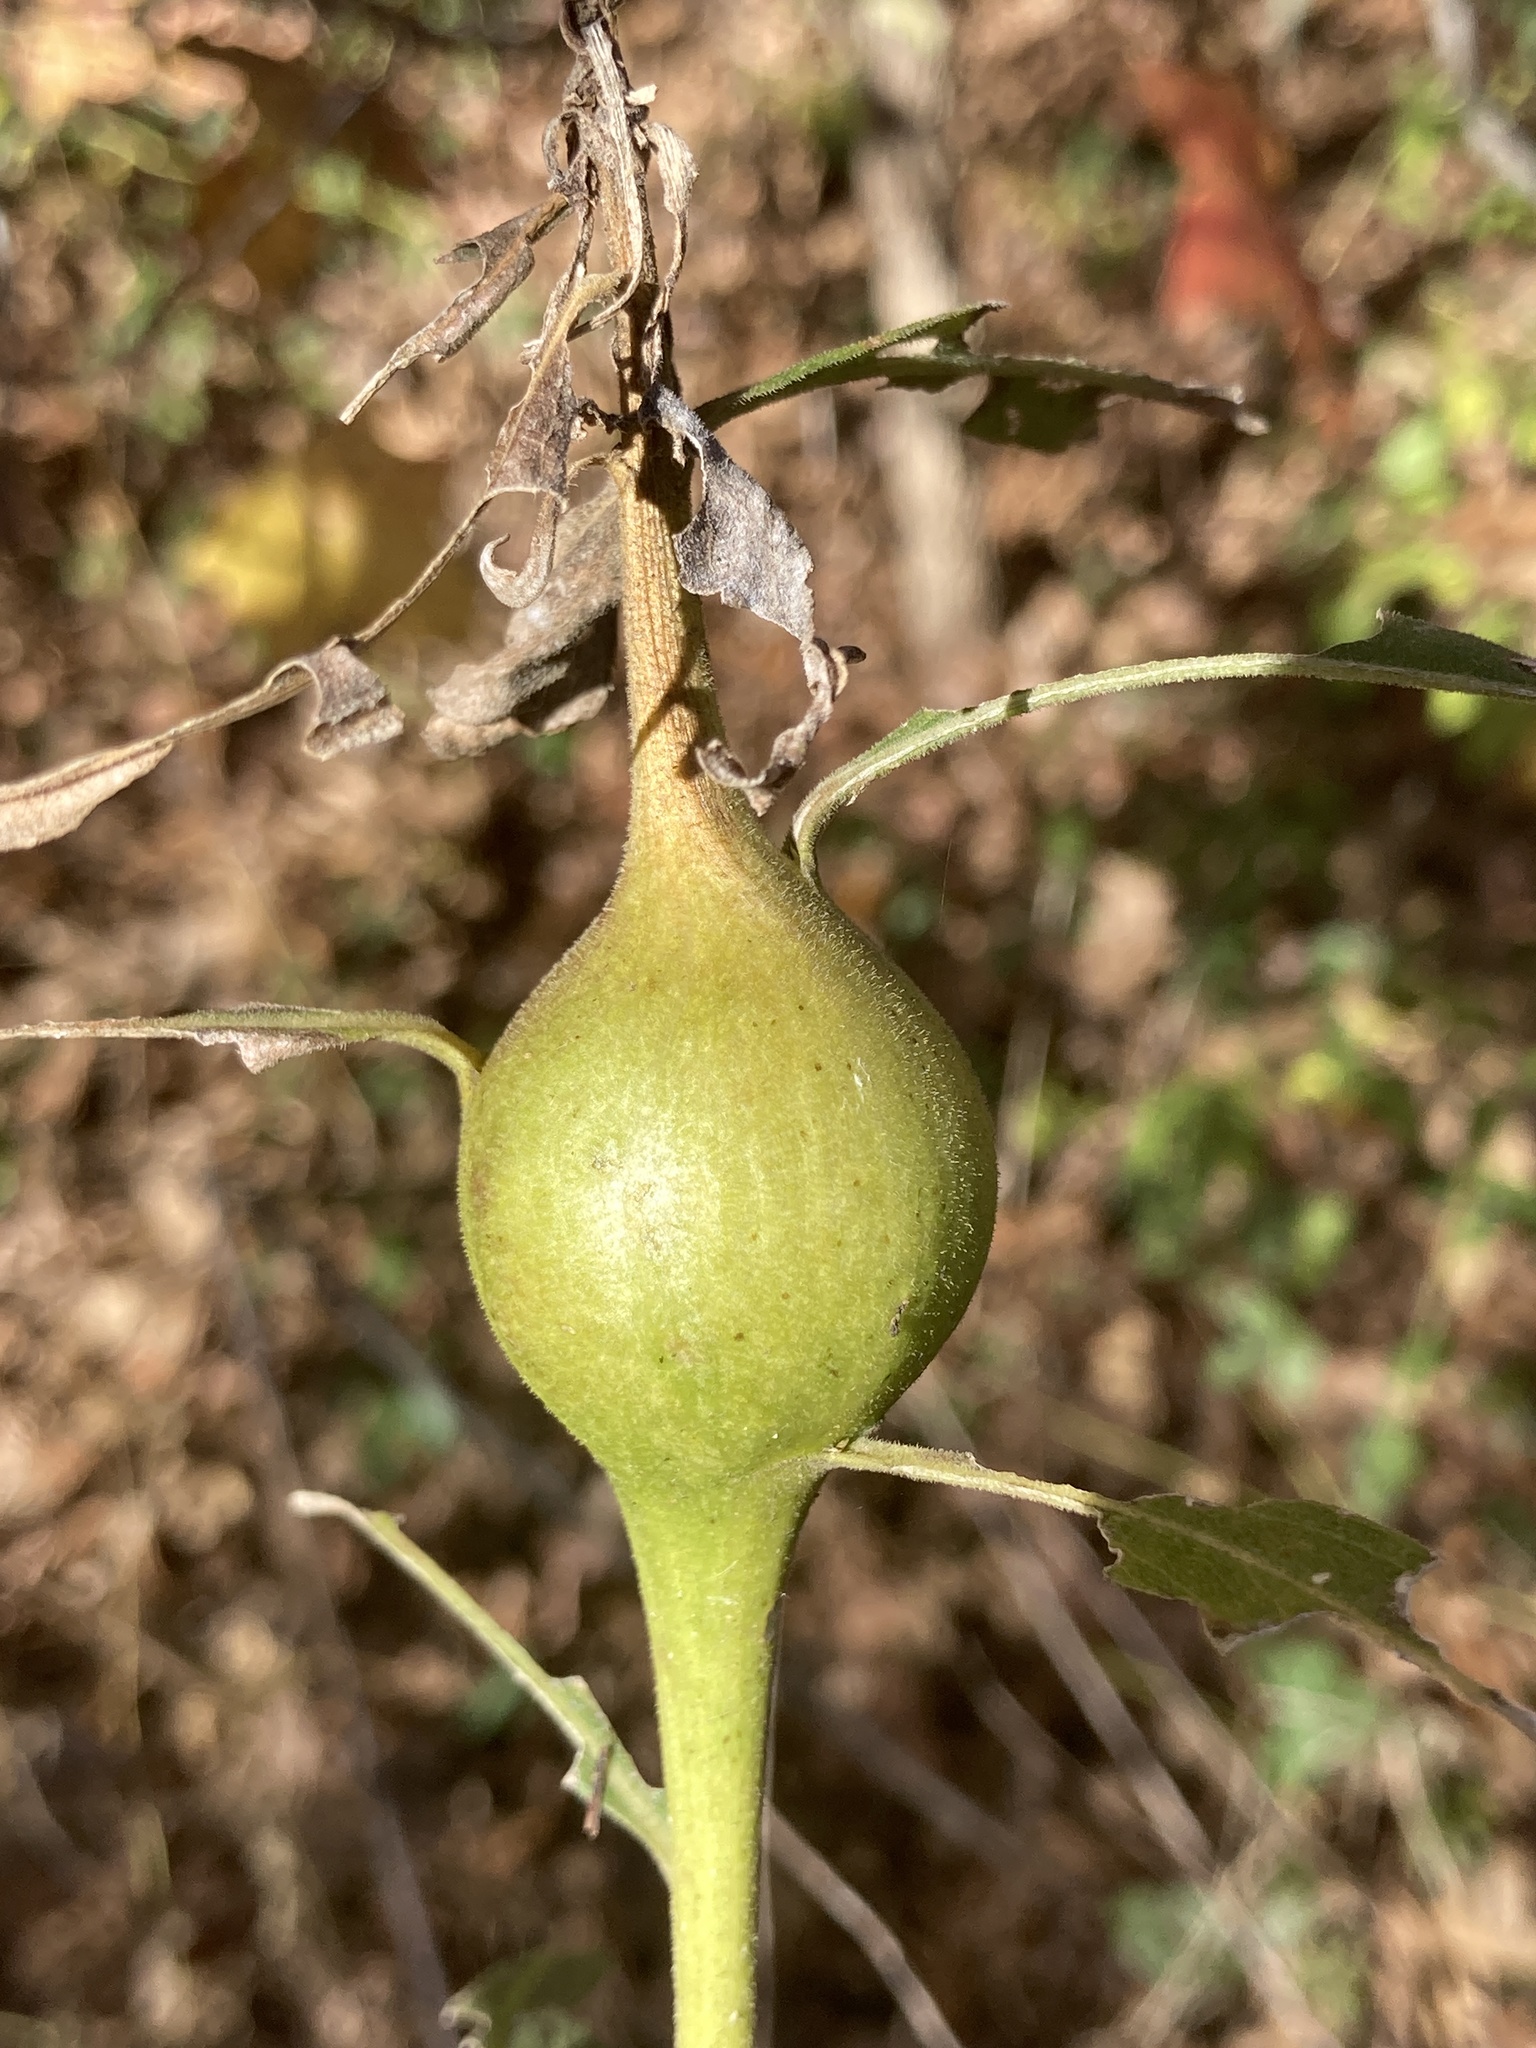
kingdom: Animalia
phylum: Arthropoda
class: Insecta
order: Diptera
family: Tephritidae
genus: Eurosta
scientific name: Eurosta solidaginis
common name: Goldenrod gall fly
